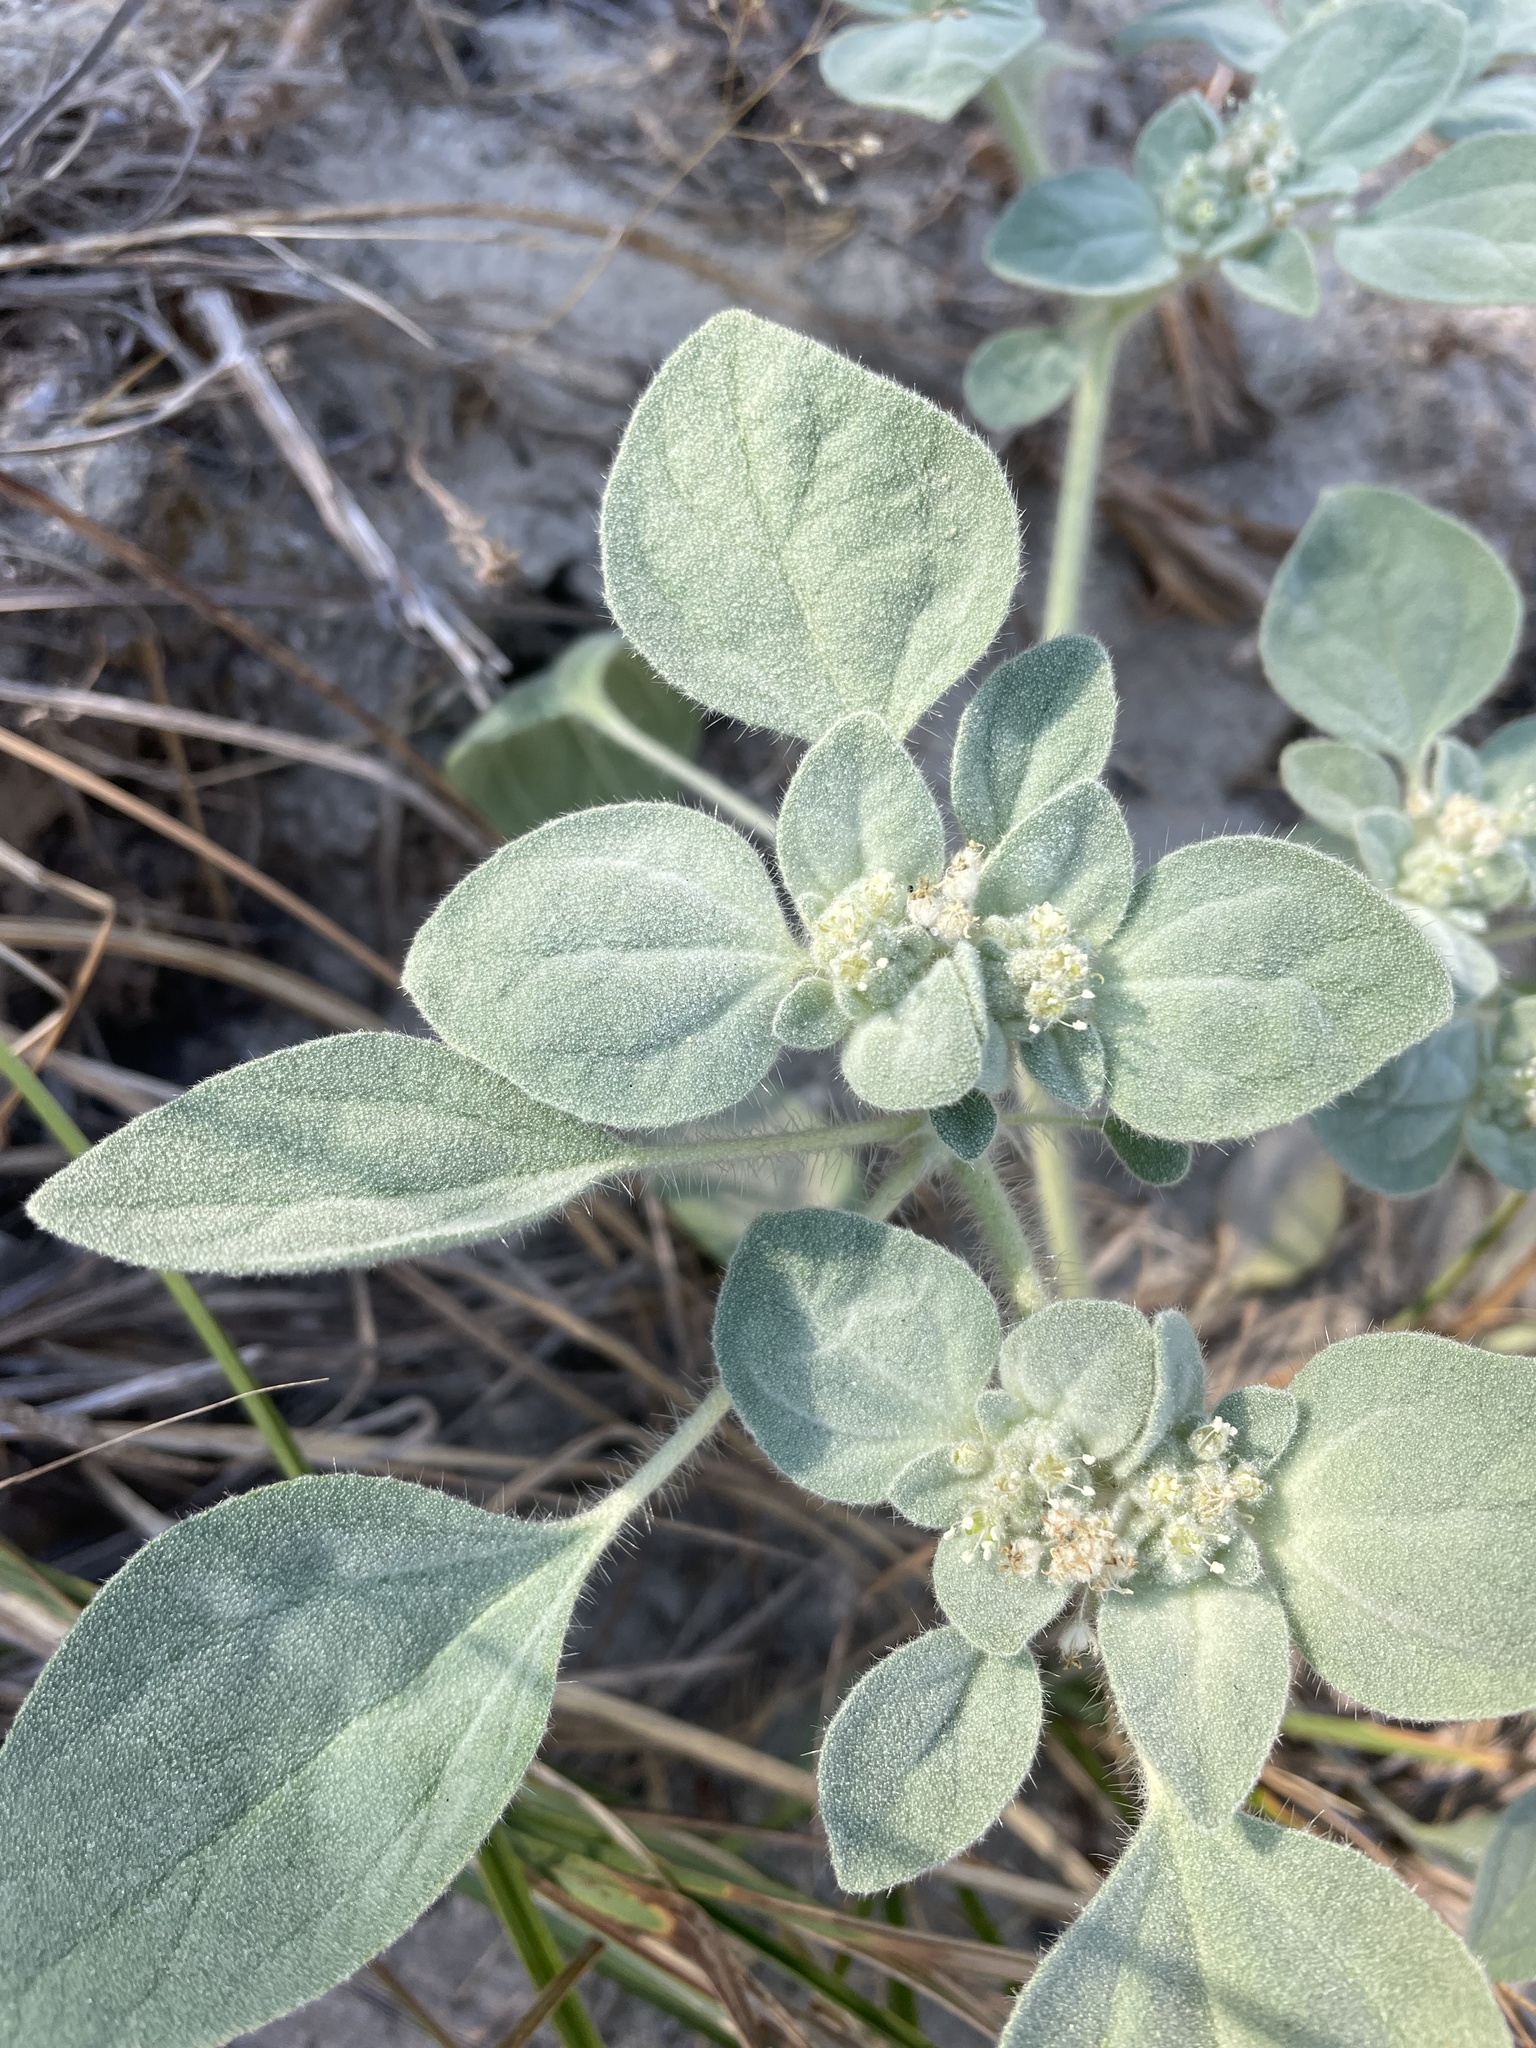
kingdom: Plantae
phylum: Tracheophyta
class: Magnoliopsida
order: Malpighiales
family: Euphorbiaceae
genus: Croton
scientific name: Croton setiger
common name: Dove weed
